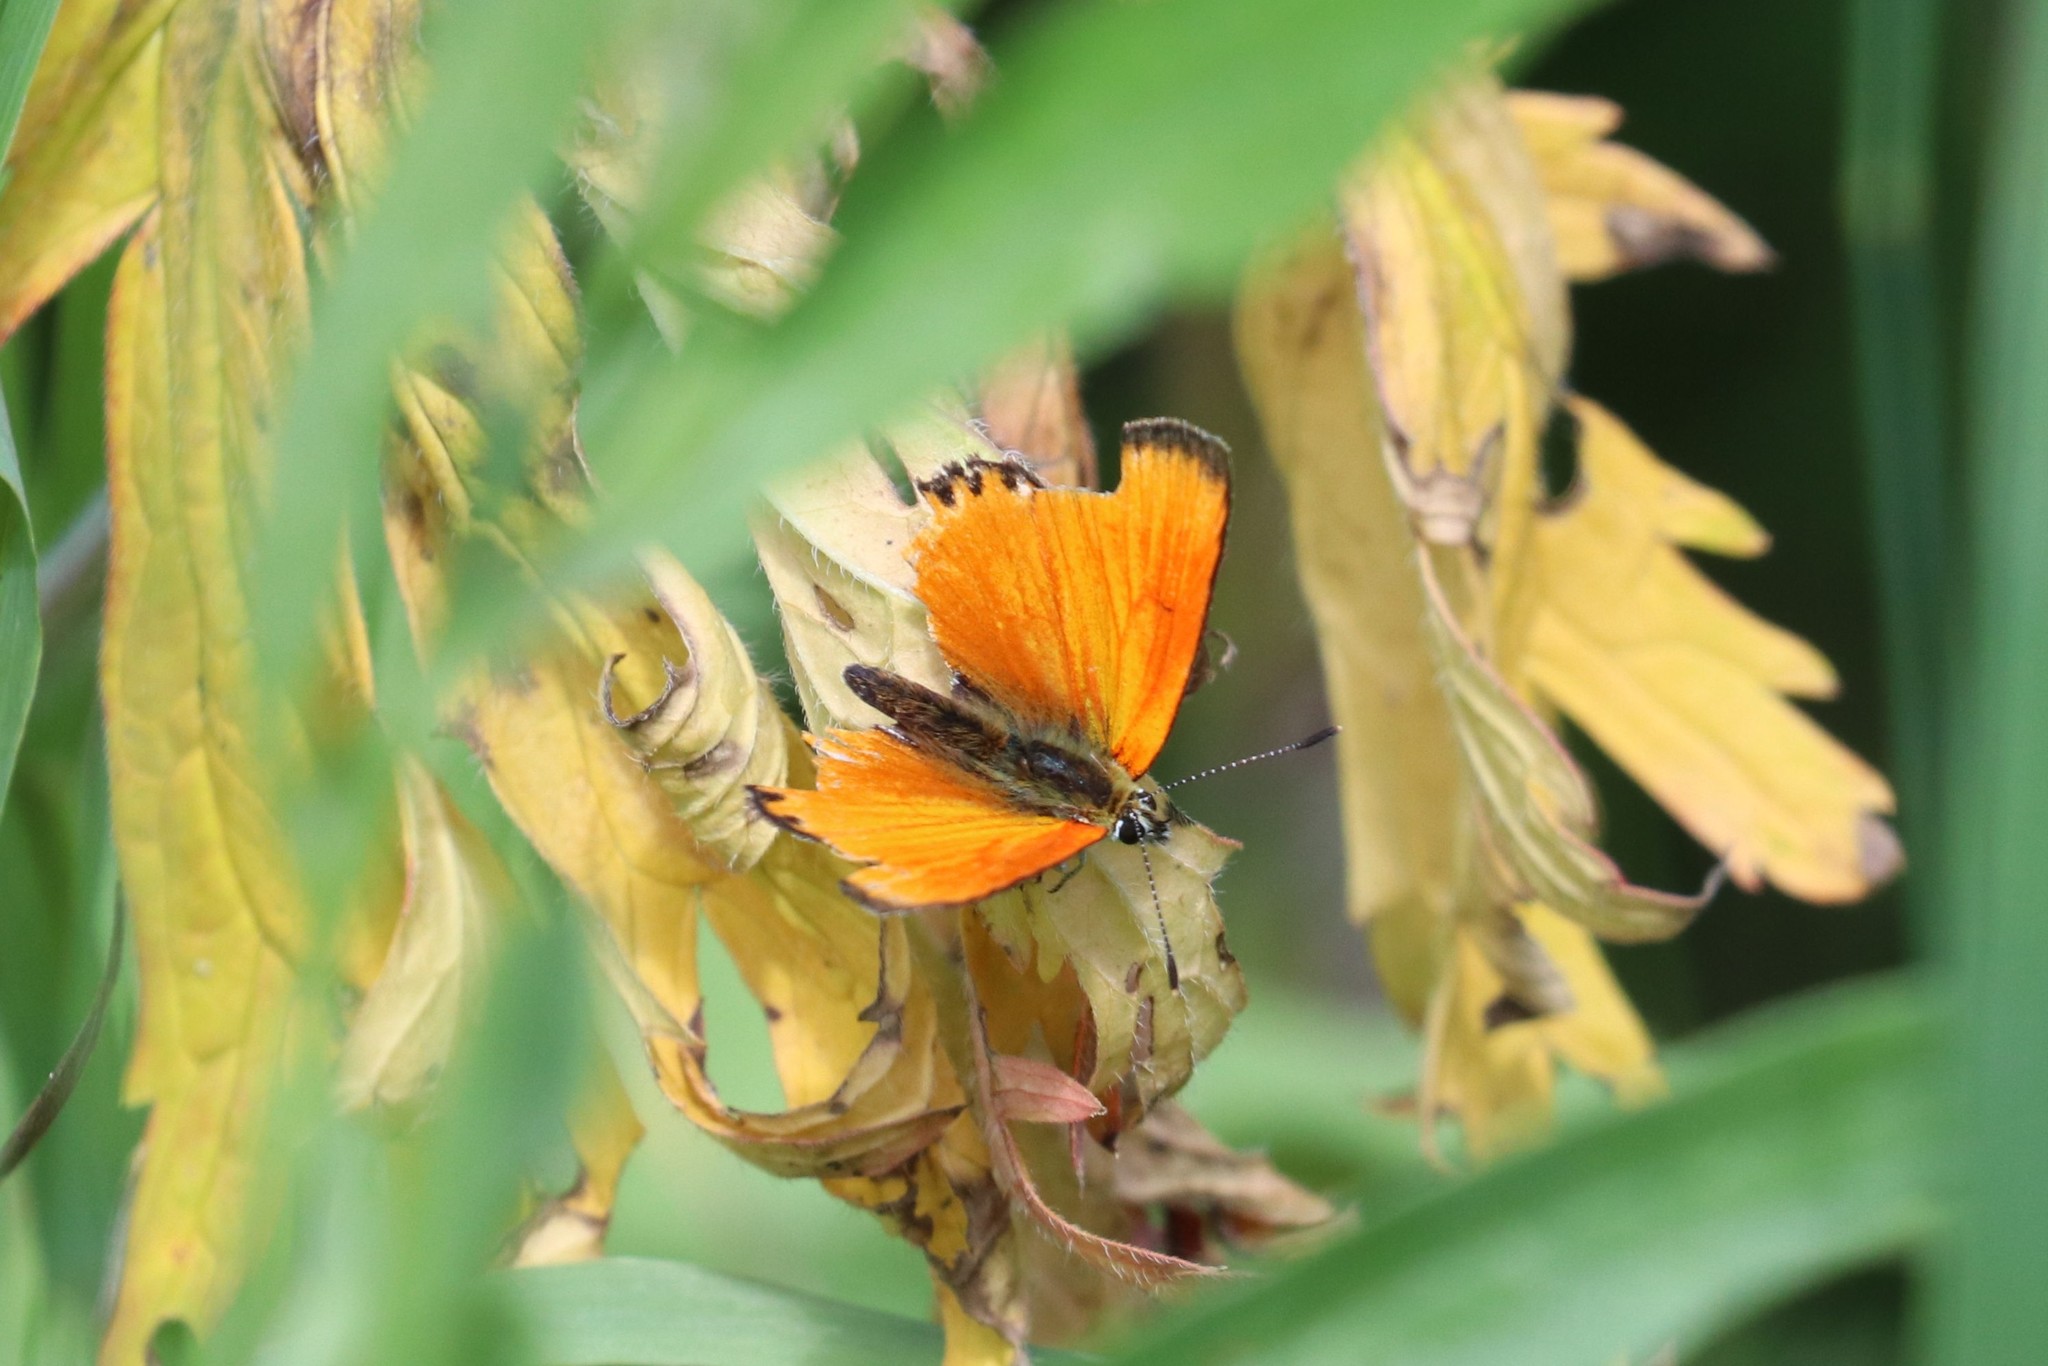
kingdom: Animalia
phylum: Arthropoda
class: Insecta
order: Lepidoptera
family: Lycaenidae
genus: Lycaena
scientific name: Lycaena virgaureae
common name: Scarce copper
